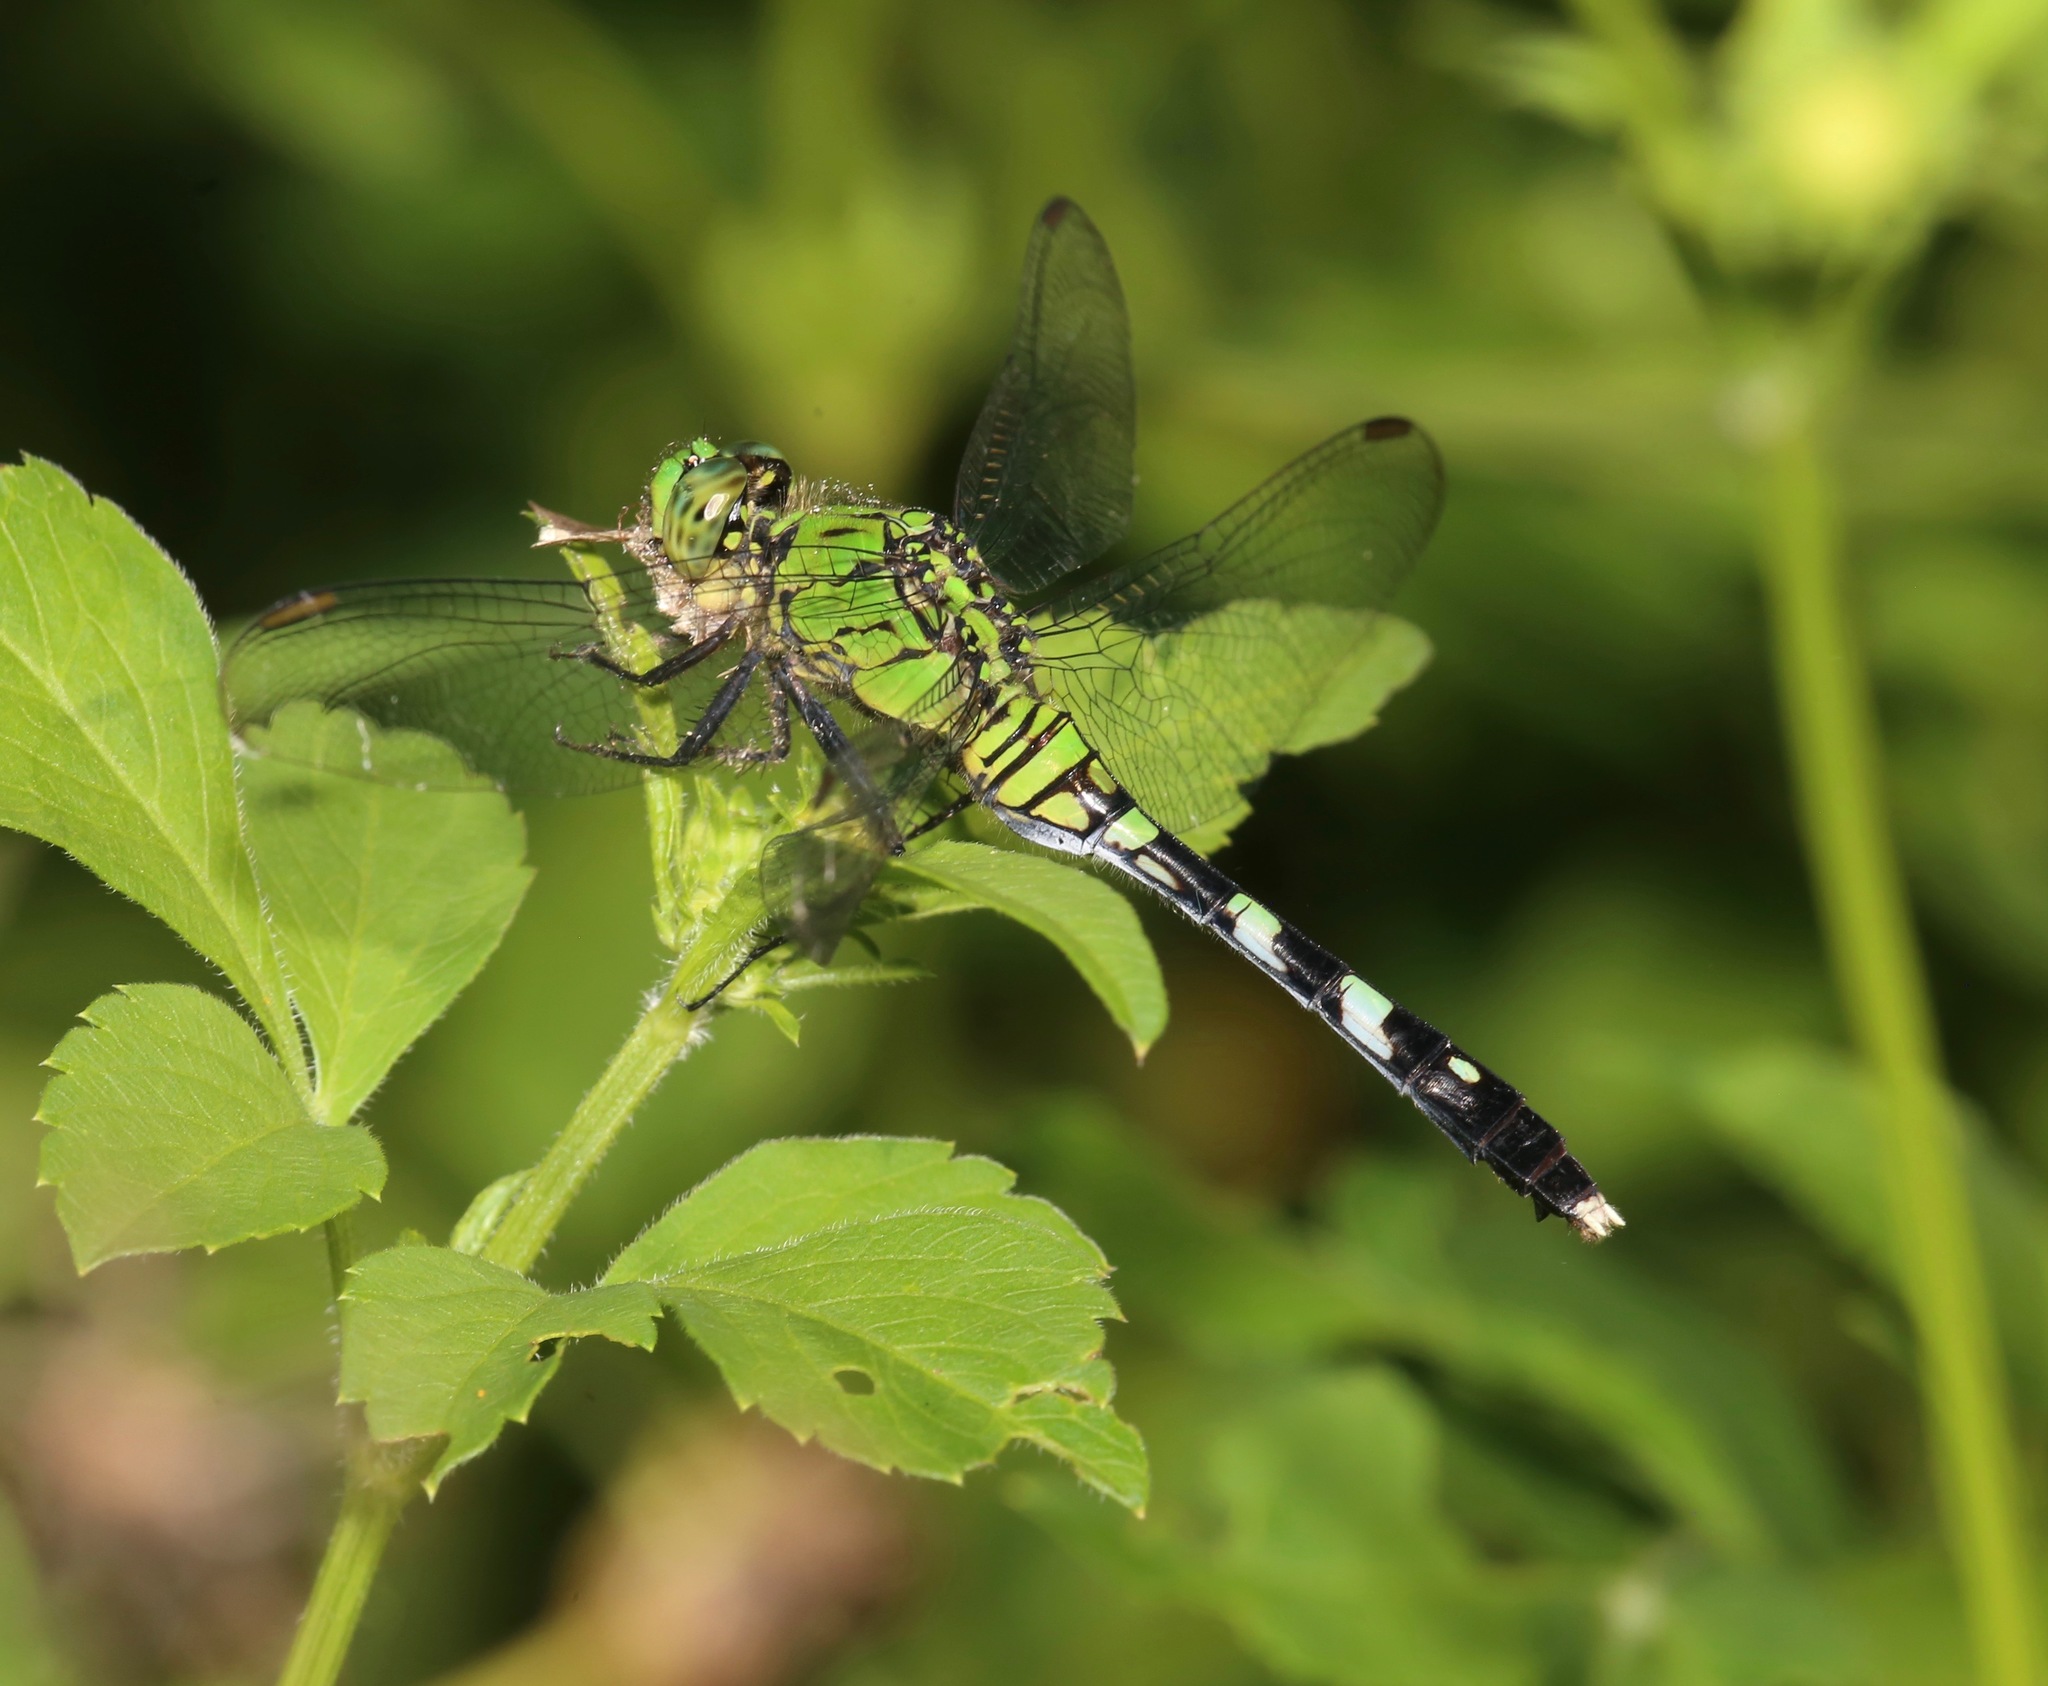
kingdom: Animalia
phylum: Arthropoda
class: Insecta
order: Odonata
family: Libellulidae
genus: Erythemis
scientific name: Erythemis simplicicollis
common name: Eastern pondhawk
